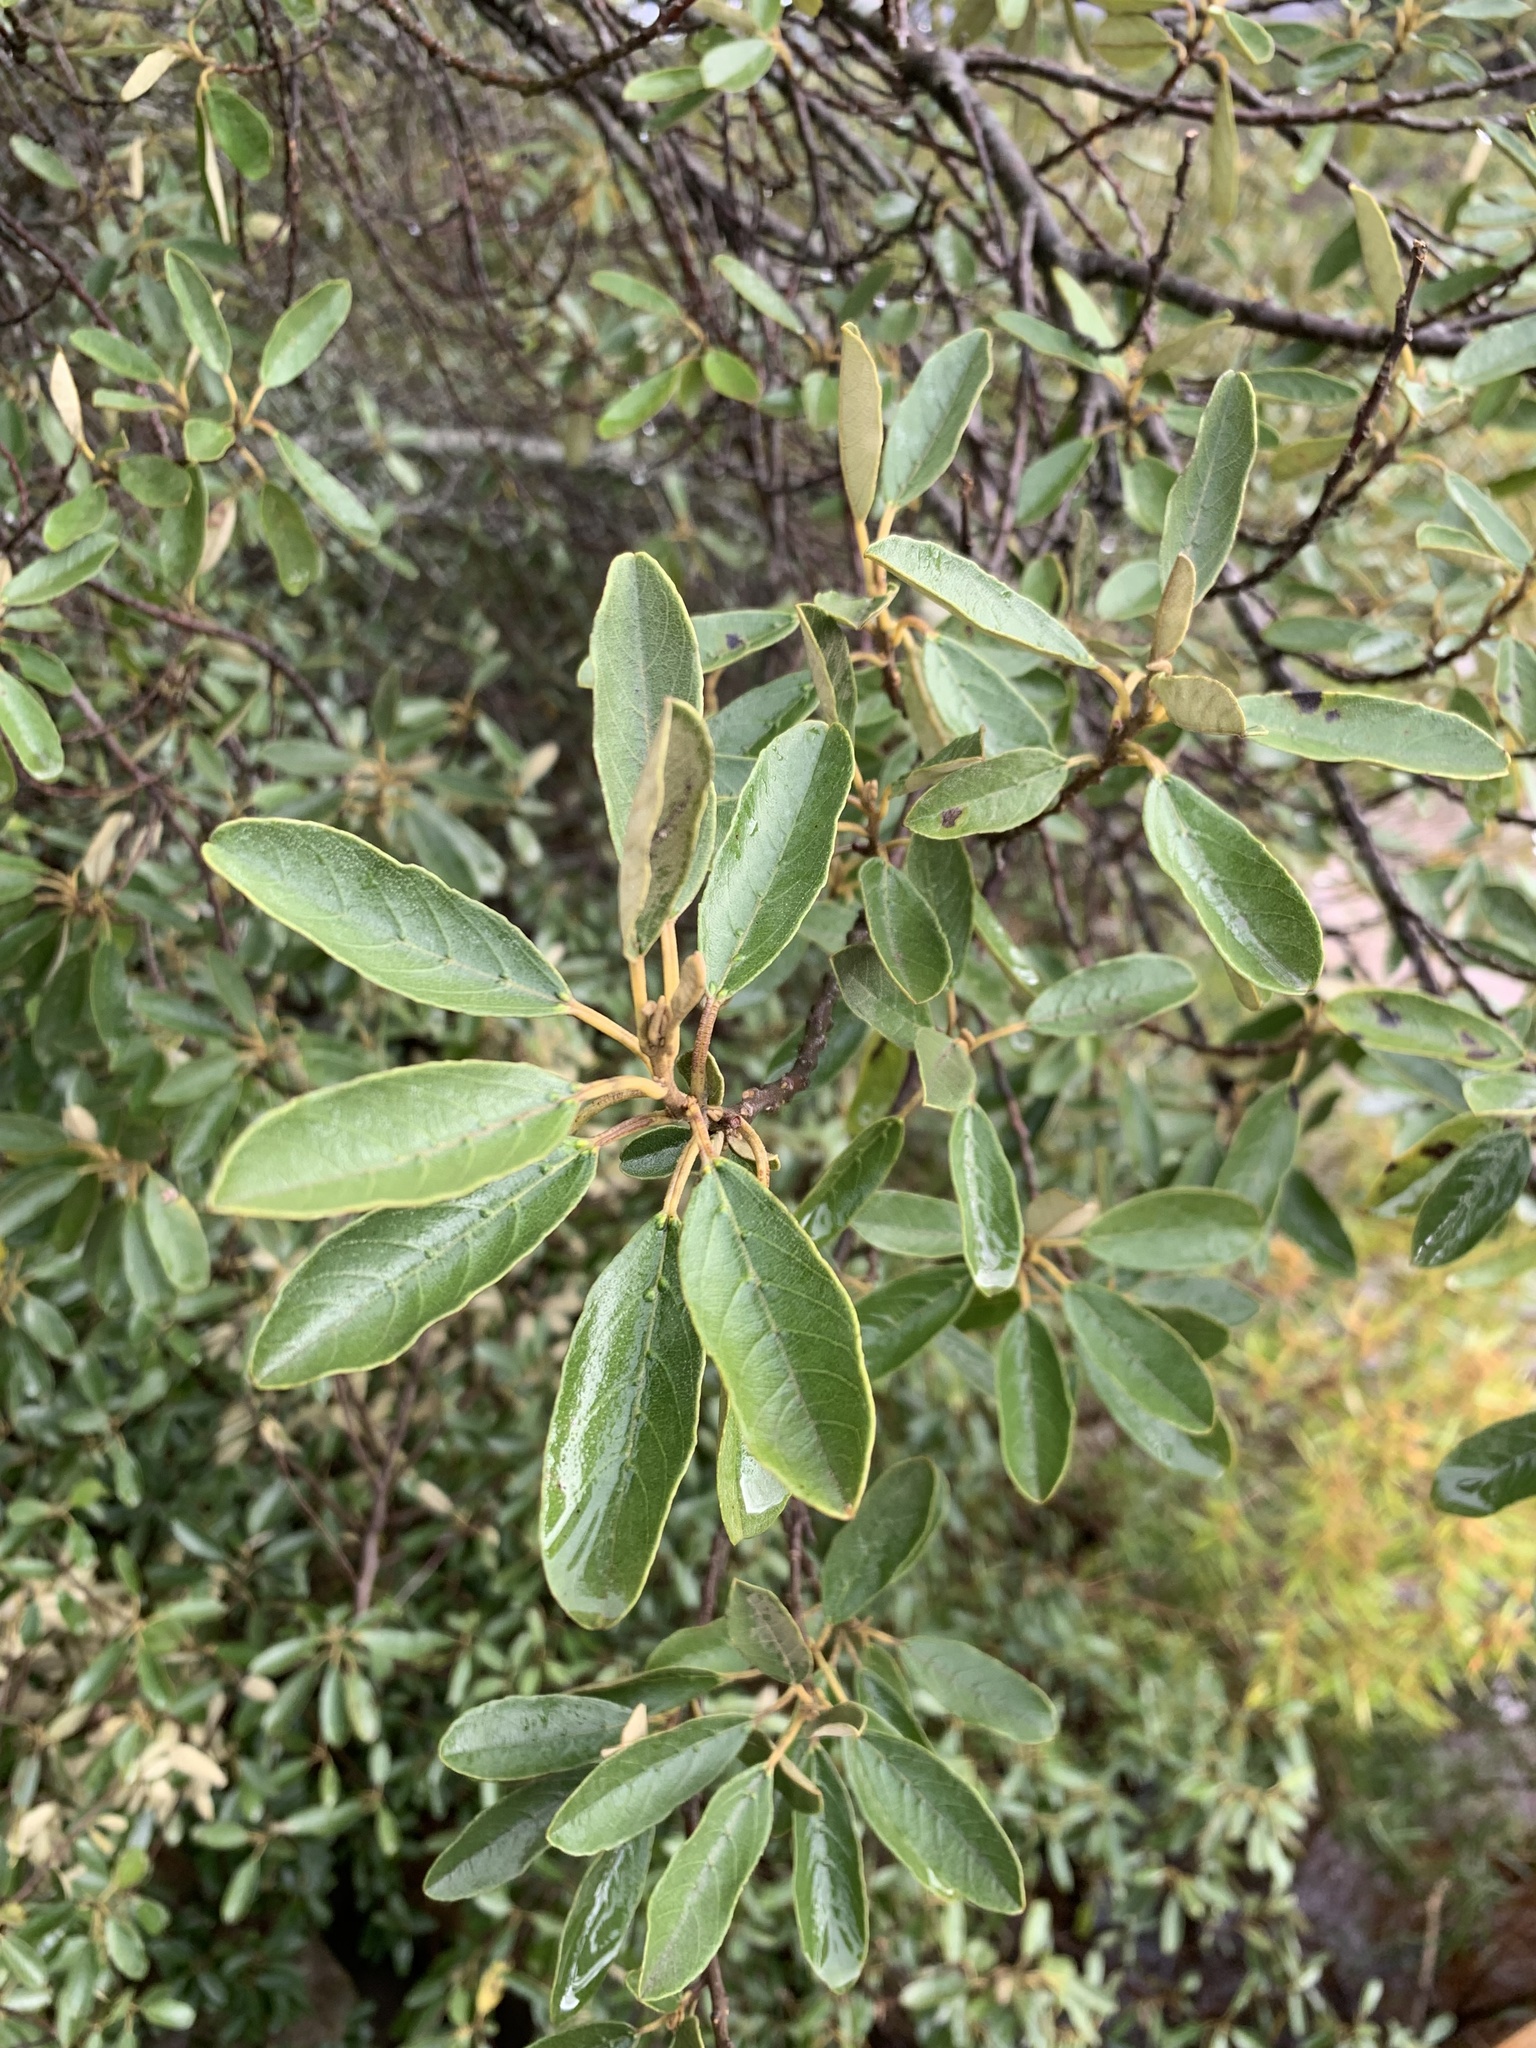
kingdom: Plantae
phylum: Tracheophyta
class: Magnoliopsida
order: Malpighiales
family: Achariaceae
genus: Kiggelaria
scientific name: Kiggelaria africana
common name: Wild peach
